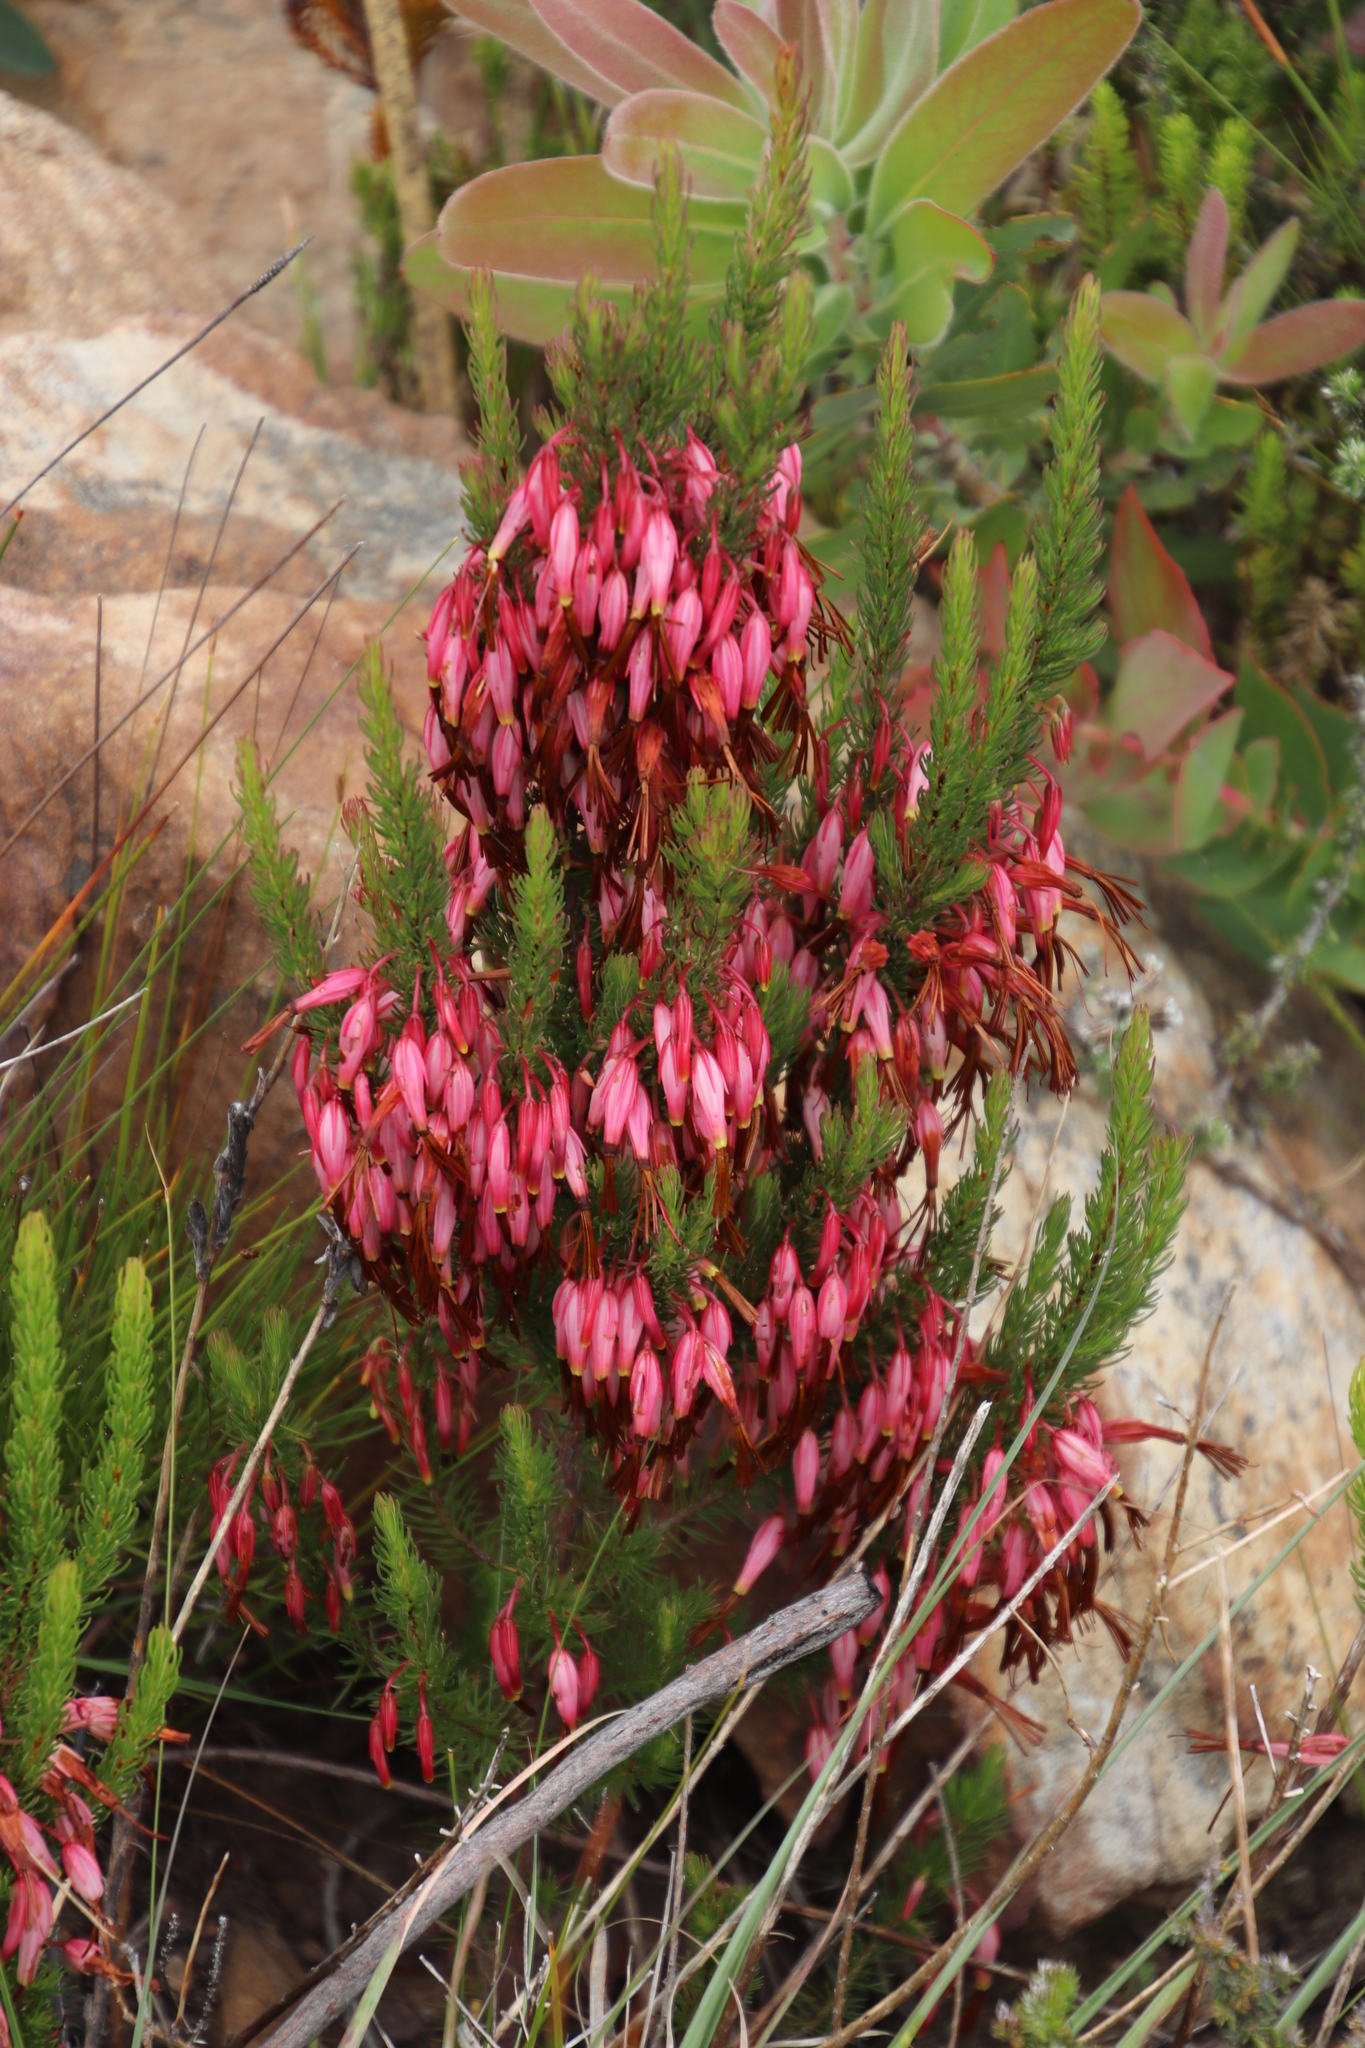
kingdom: Plantae
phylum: Tracheophyta
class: Magnoliopsida
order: Ericales
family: Ericaceae
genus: Erica
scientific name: Erica plukenetii
